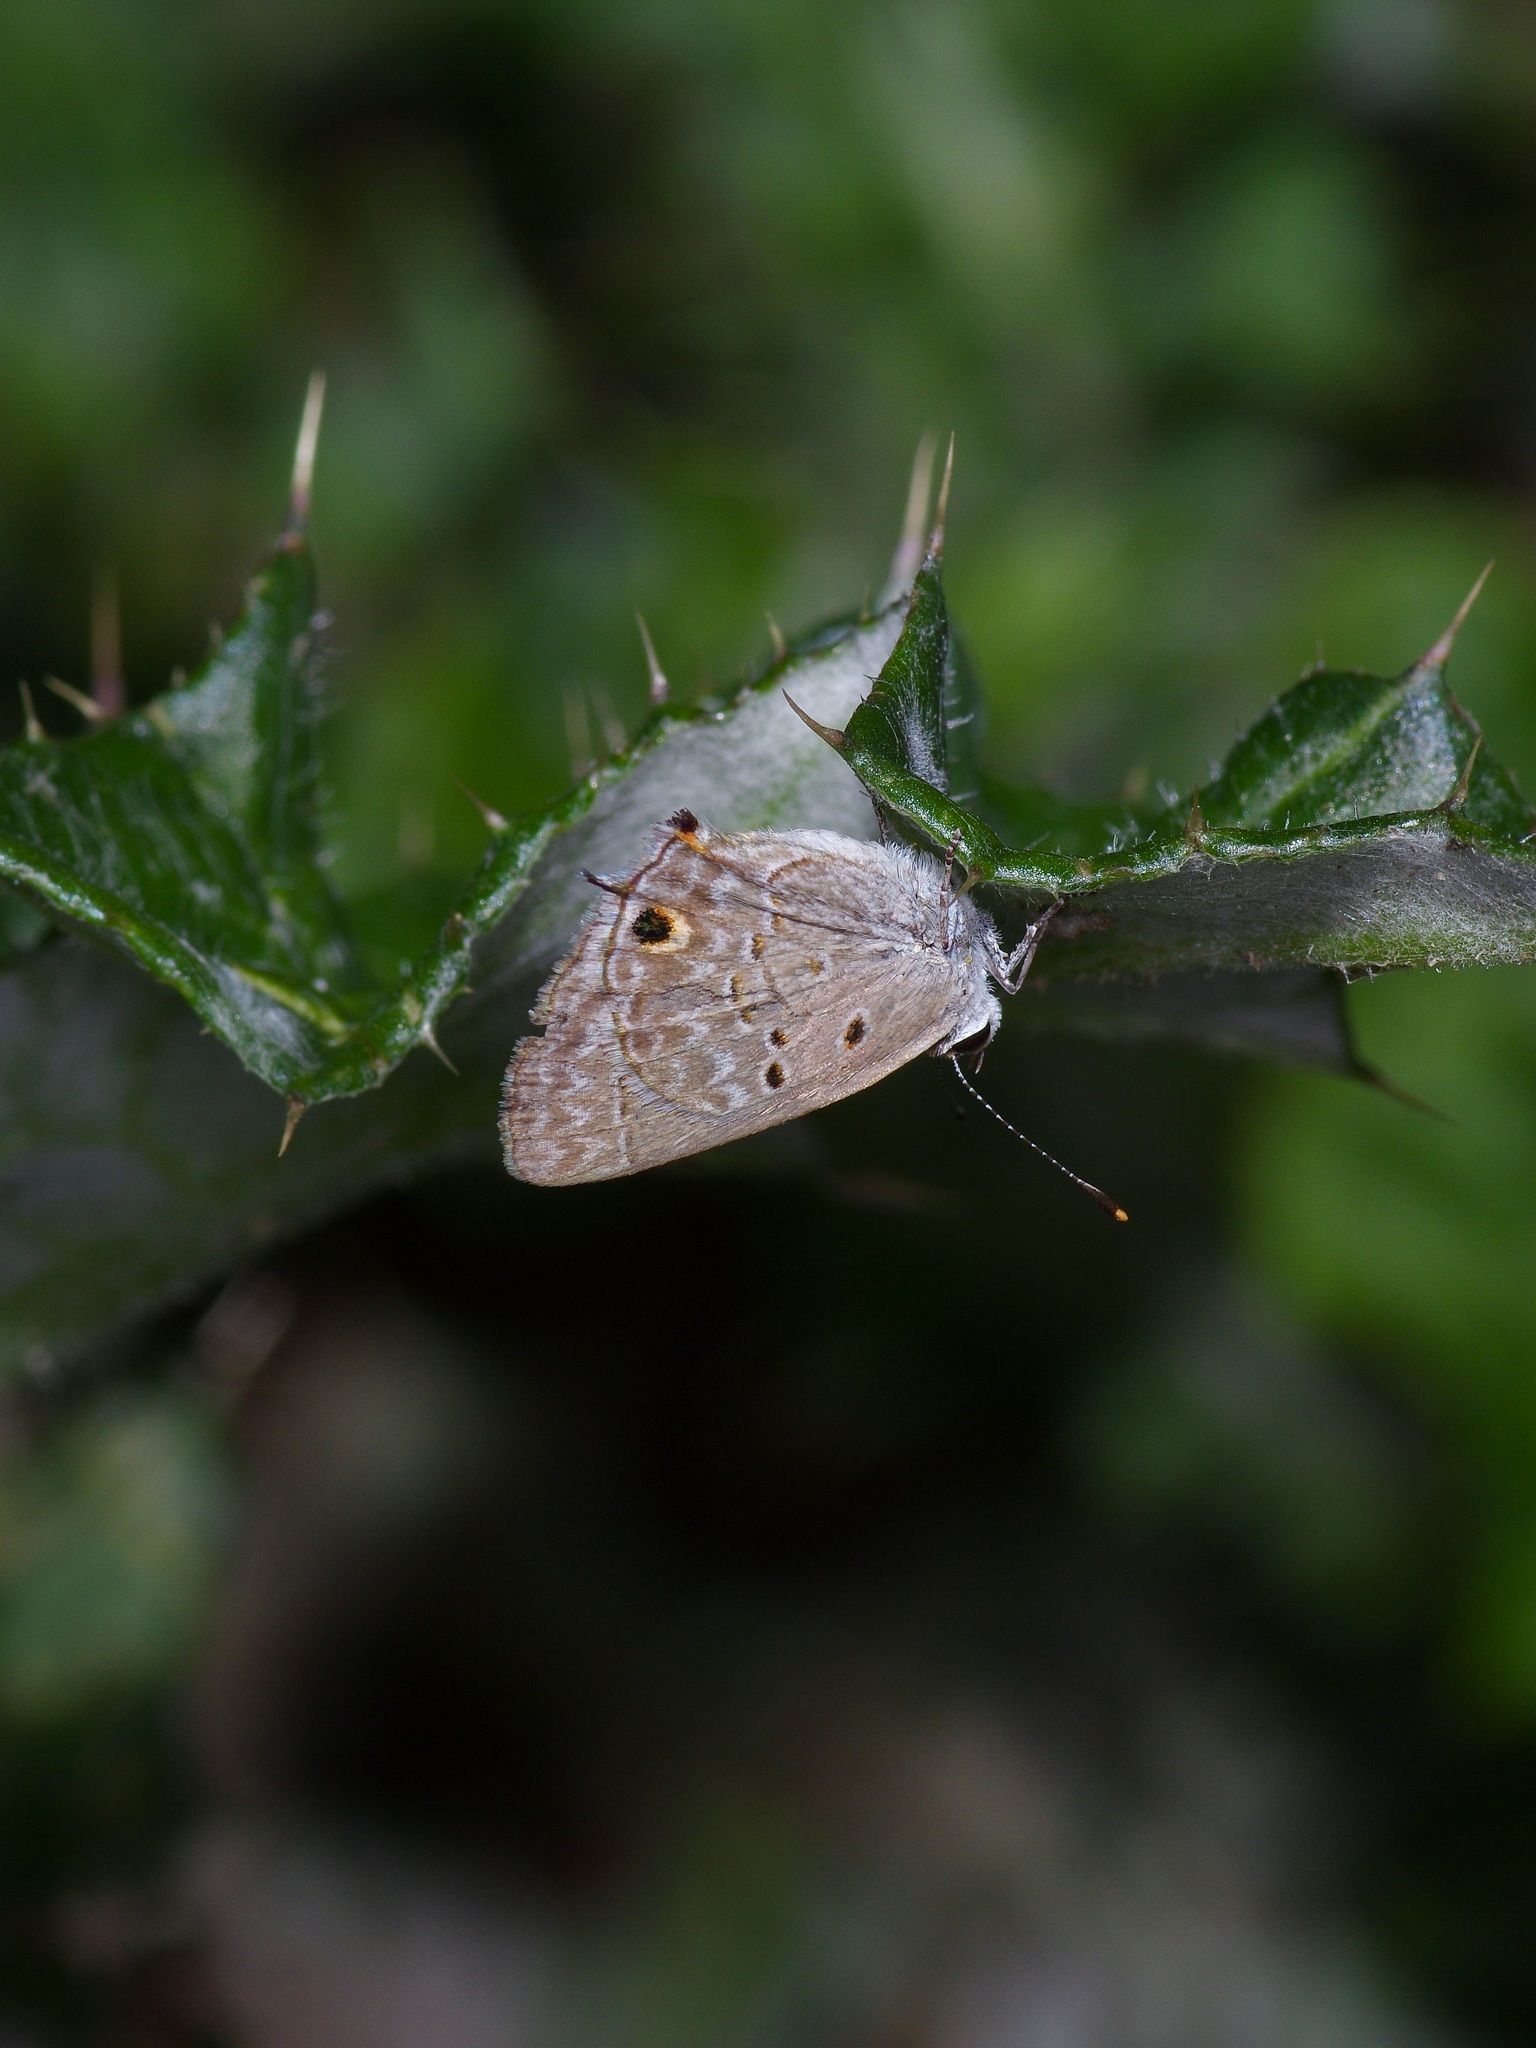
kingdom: Animalia
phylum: Arthropoda
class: Insecta
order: Lepidoptera
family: Lycaenidae
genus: Callicista
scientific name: Callicista columella
